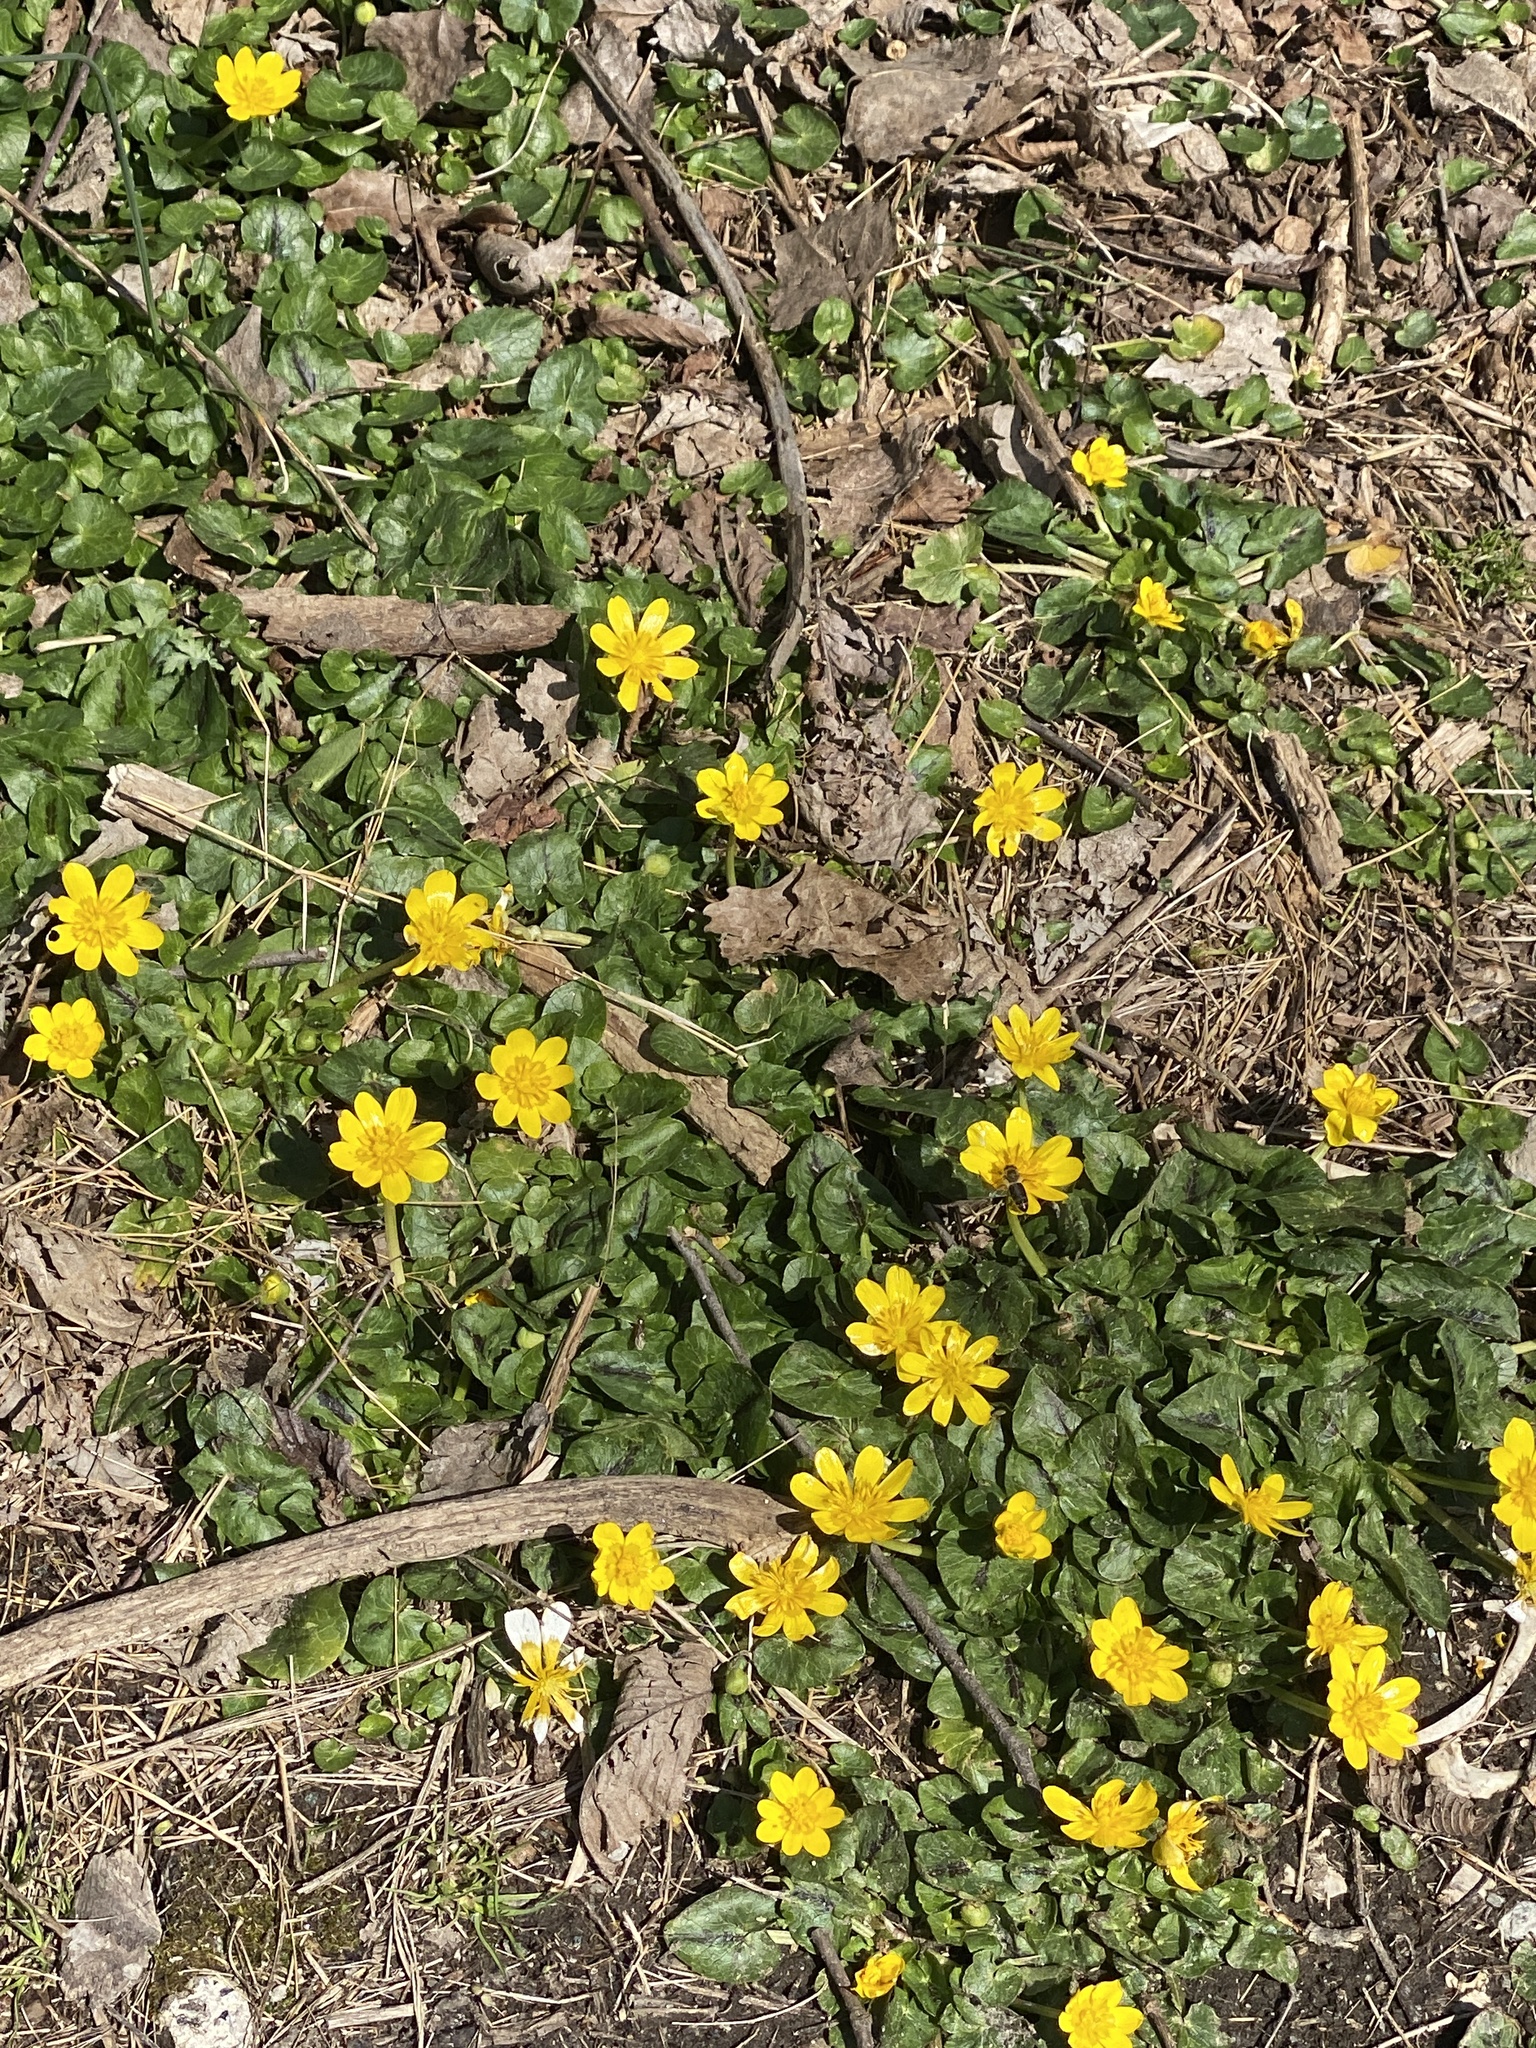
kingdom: Plantae
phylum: Tracheophyta
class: Magnoliopsida
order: Ranunculales
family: Ranunculaceae
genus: Ficaria
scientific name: Ficaria verna
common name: Lesser celandine
